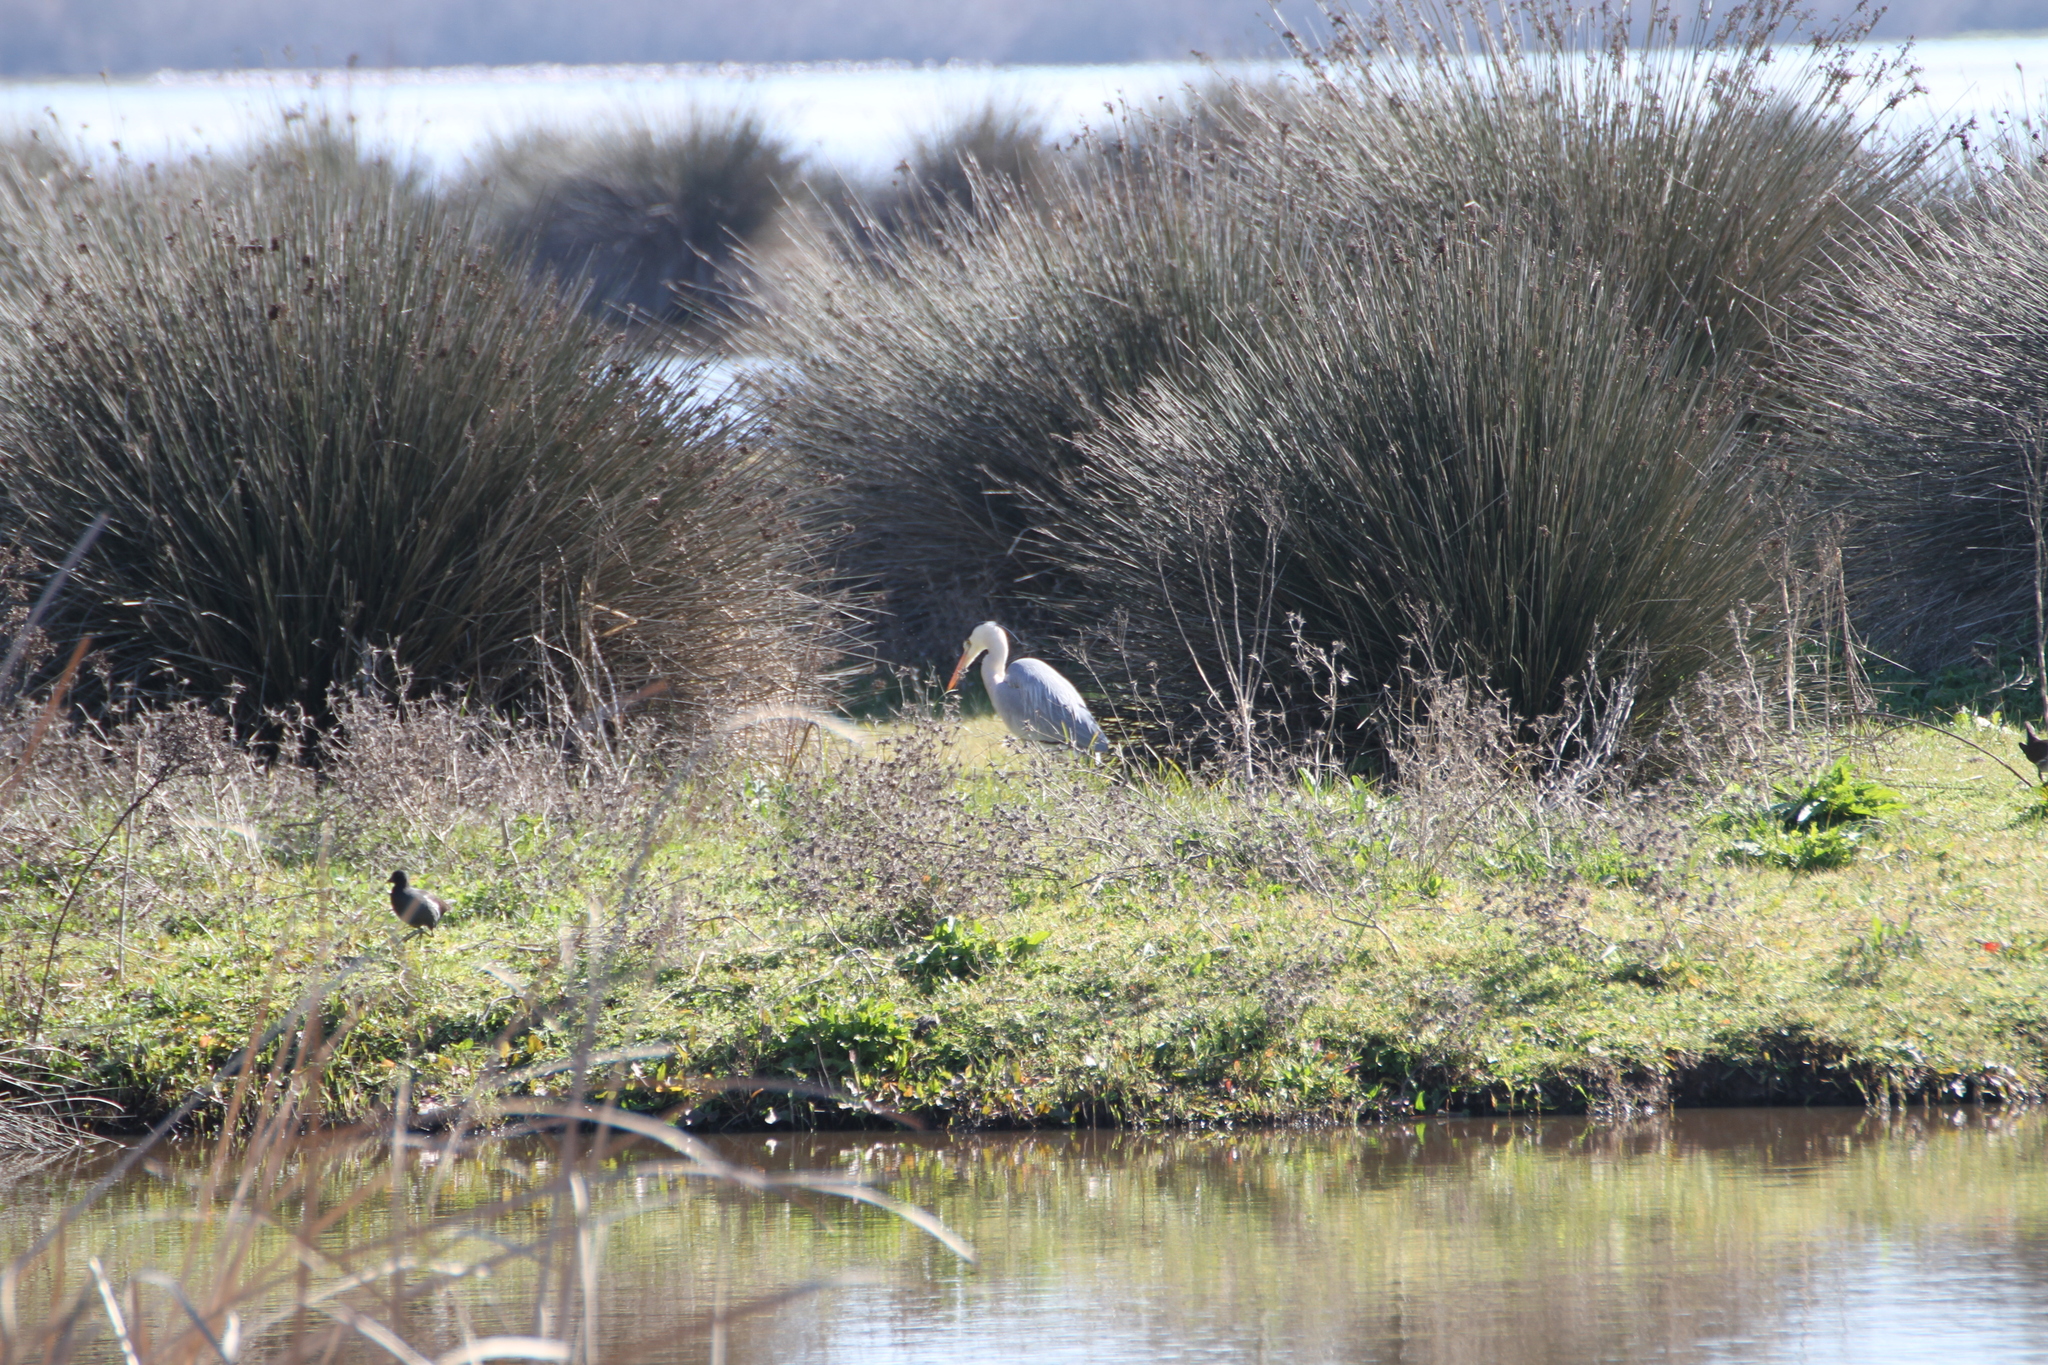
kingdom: Animalia
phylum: Chordata
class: Aves
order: Pelecaniformes
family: Ardeidae
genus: Ardea
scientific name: Ardea cinerea
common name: Grey heron
